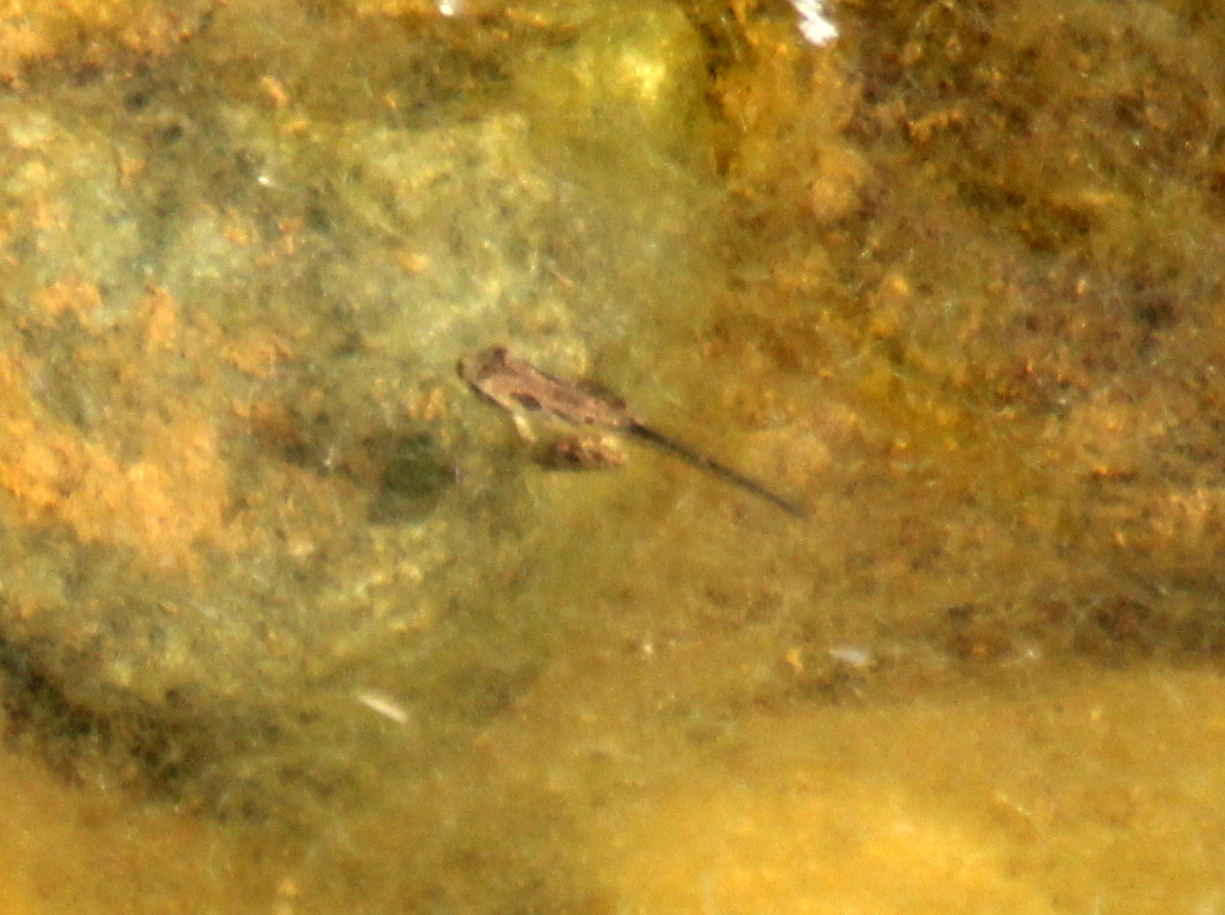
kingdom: Animalia
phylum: Chordata
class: Amphibia
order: Anura
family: Hylidae
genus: Pseudacris
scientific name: Pseudacris regilla
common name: Pacific chorus frog
